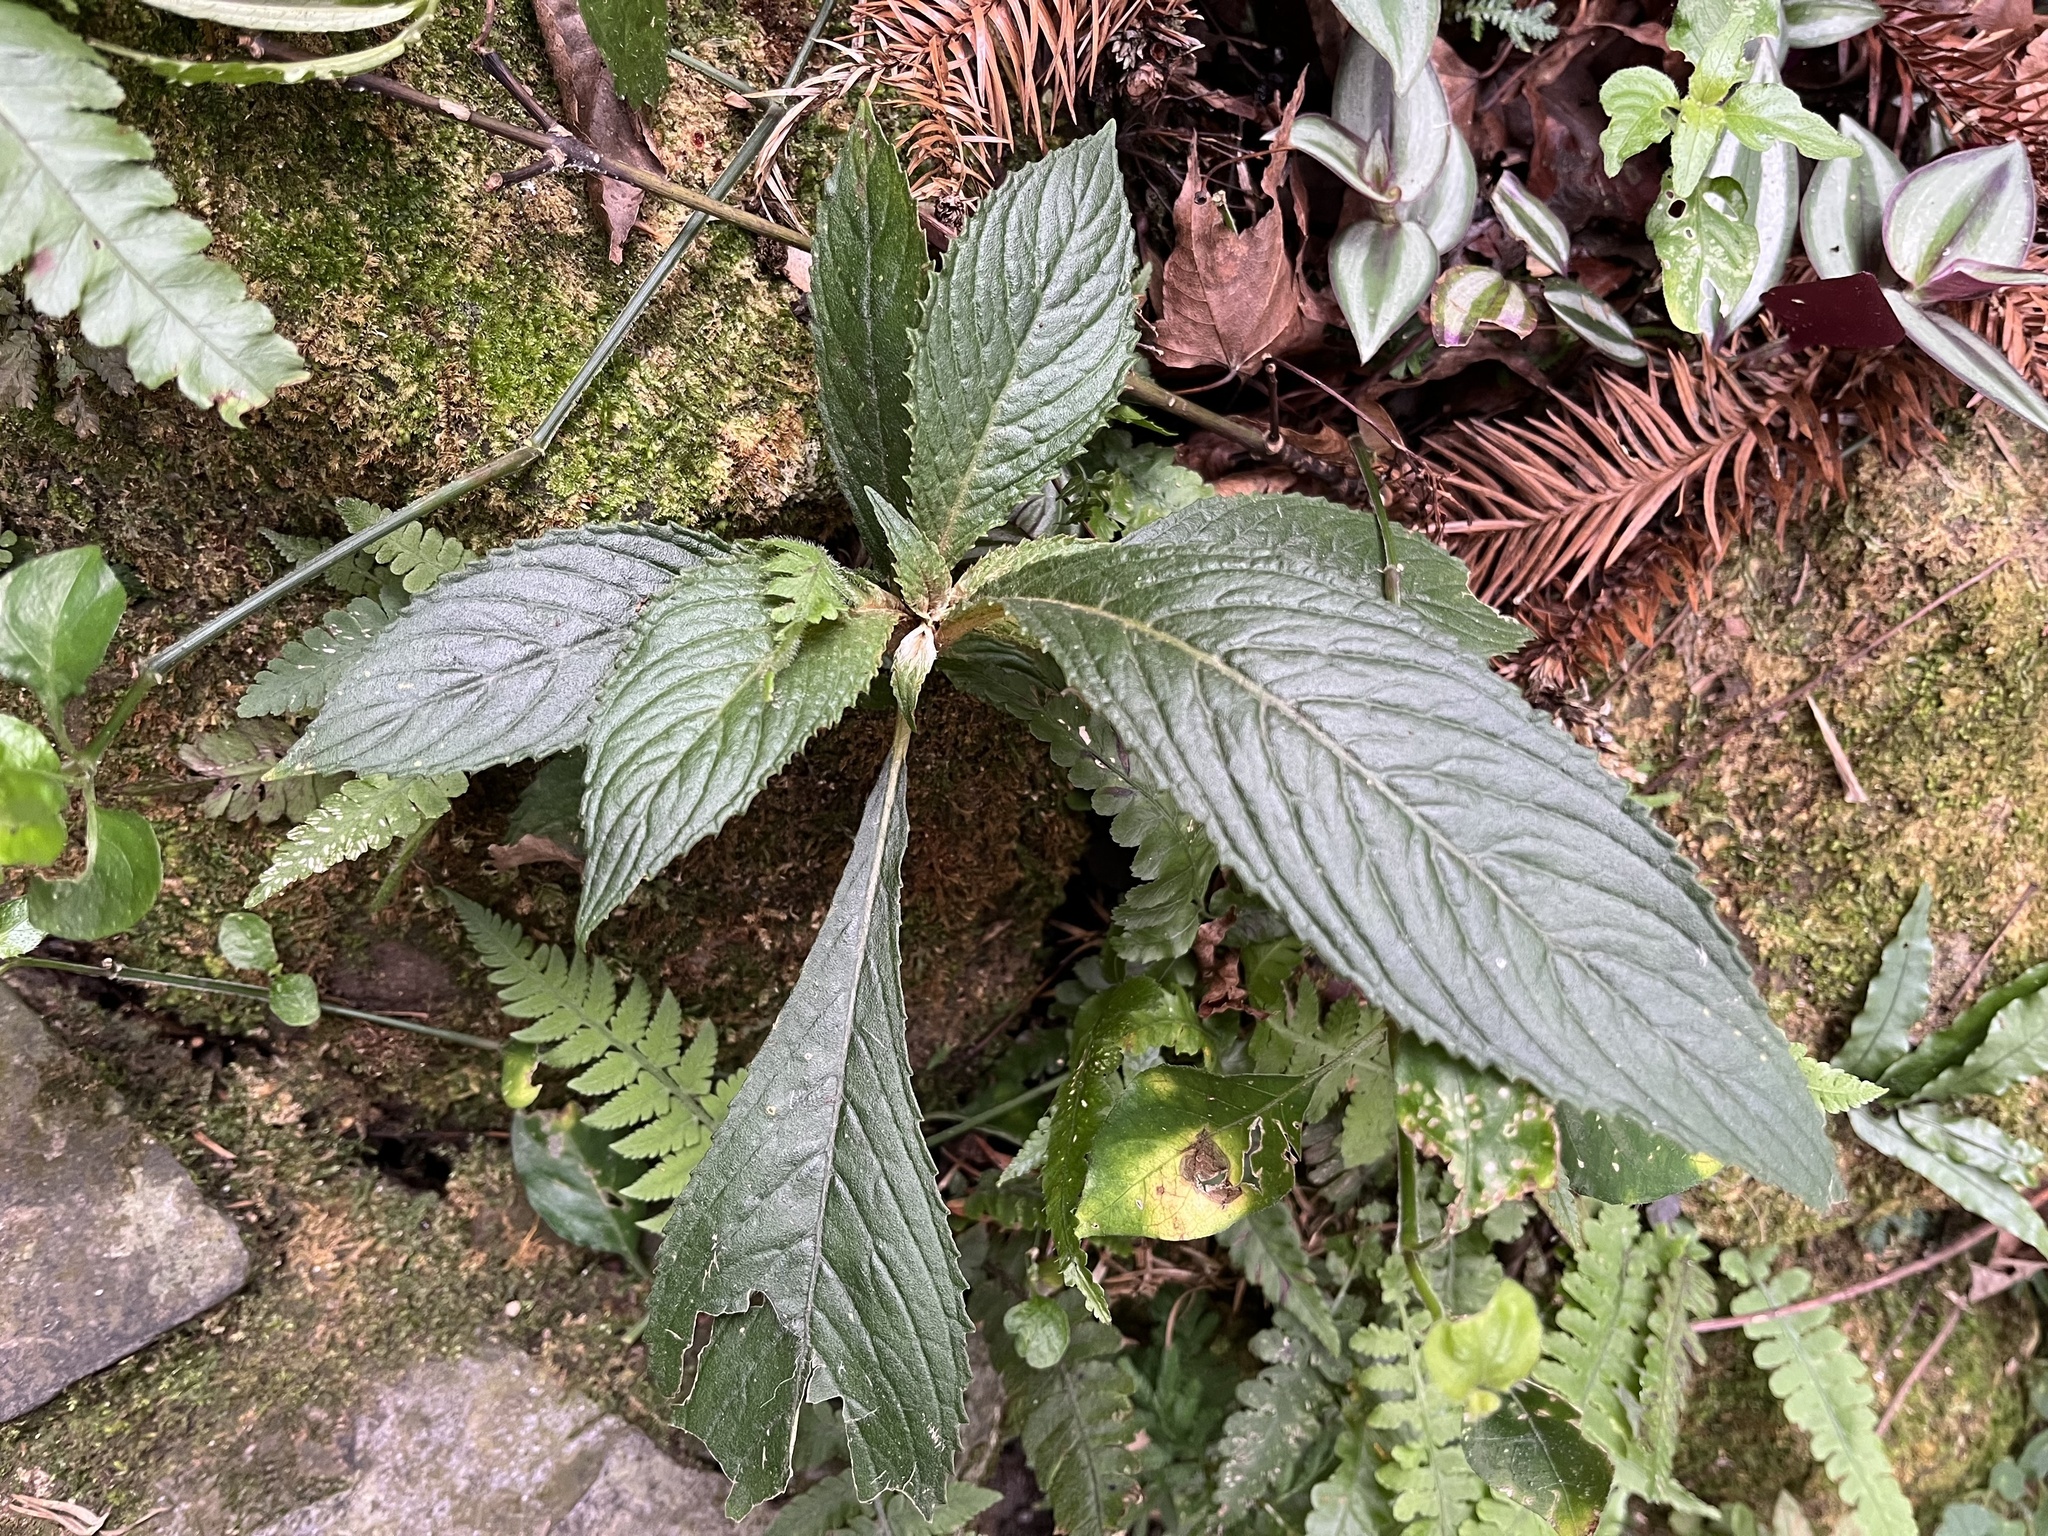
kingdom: Plantae
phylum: Tracheophyta
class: Magnoliopsida
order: Lamiales
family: Gesneriaceae
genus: Rhynchotechum
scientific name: Rhynchotechum discolor
